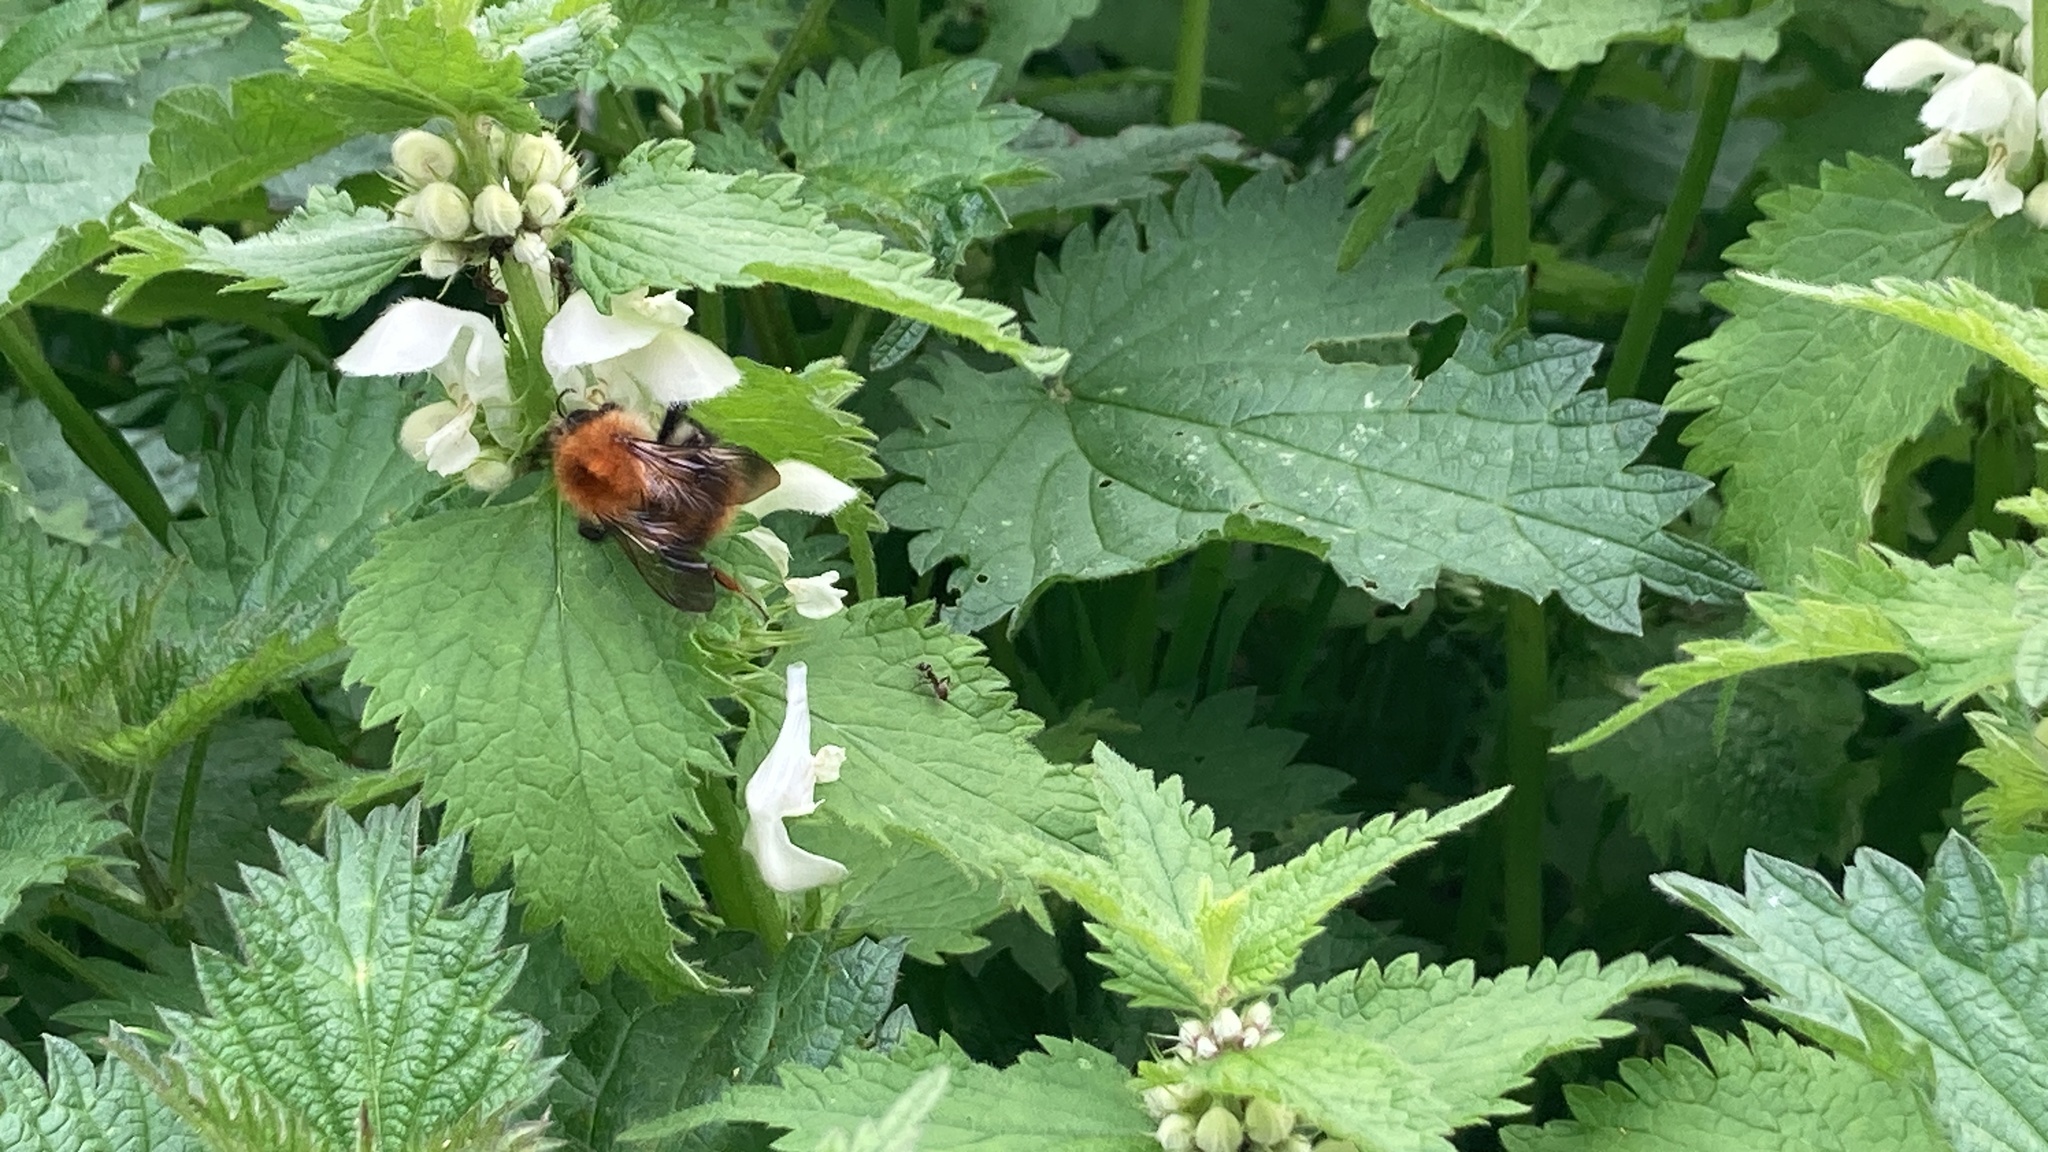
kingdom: Animalia
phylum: Arthropoda
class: Insecta
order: Hymenoptera
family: Apidae
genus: Bombus
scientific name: Bombus pascuorum
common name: Common carder bee
